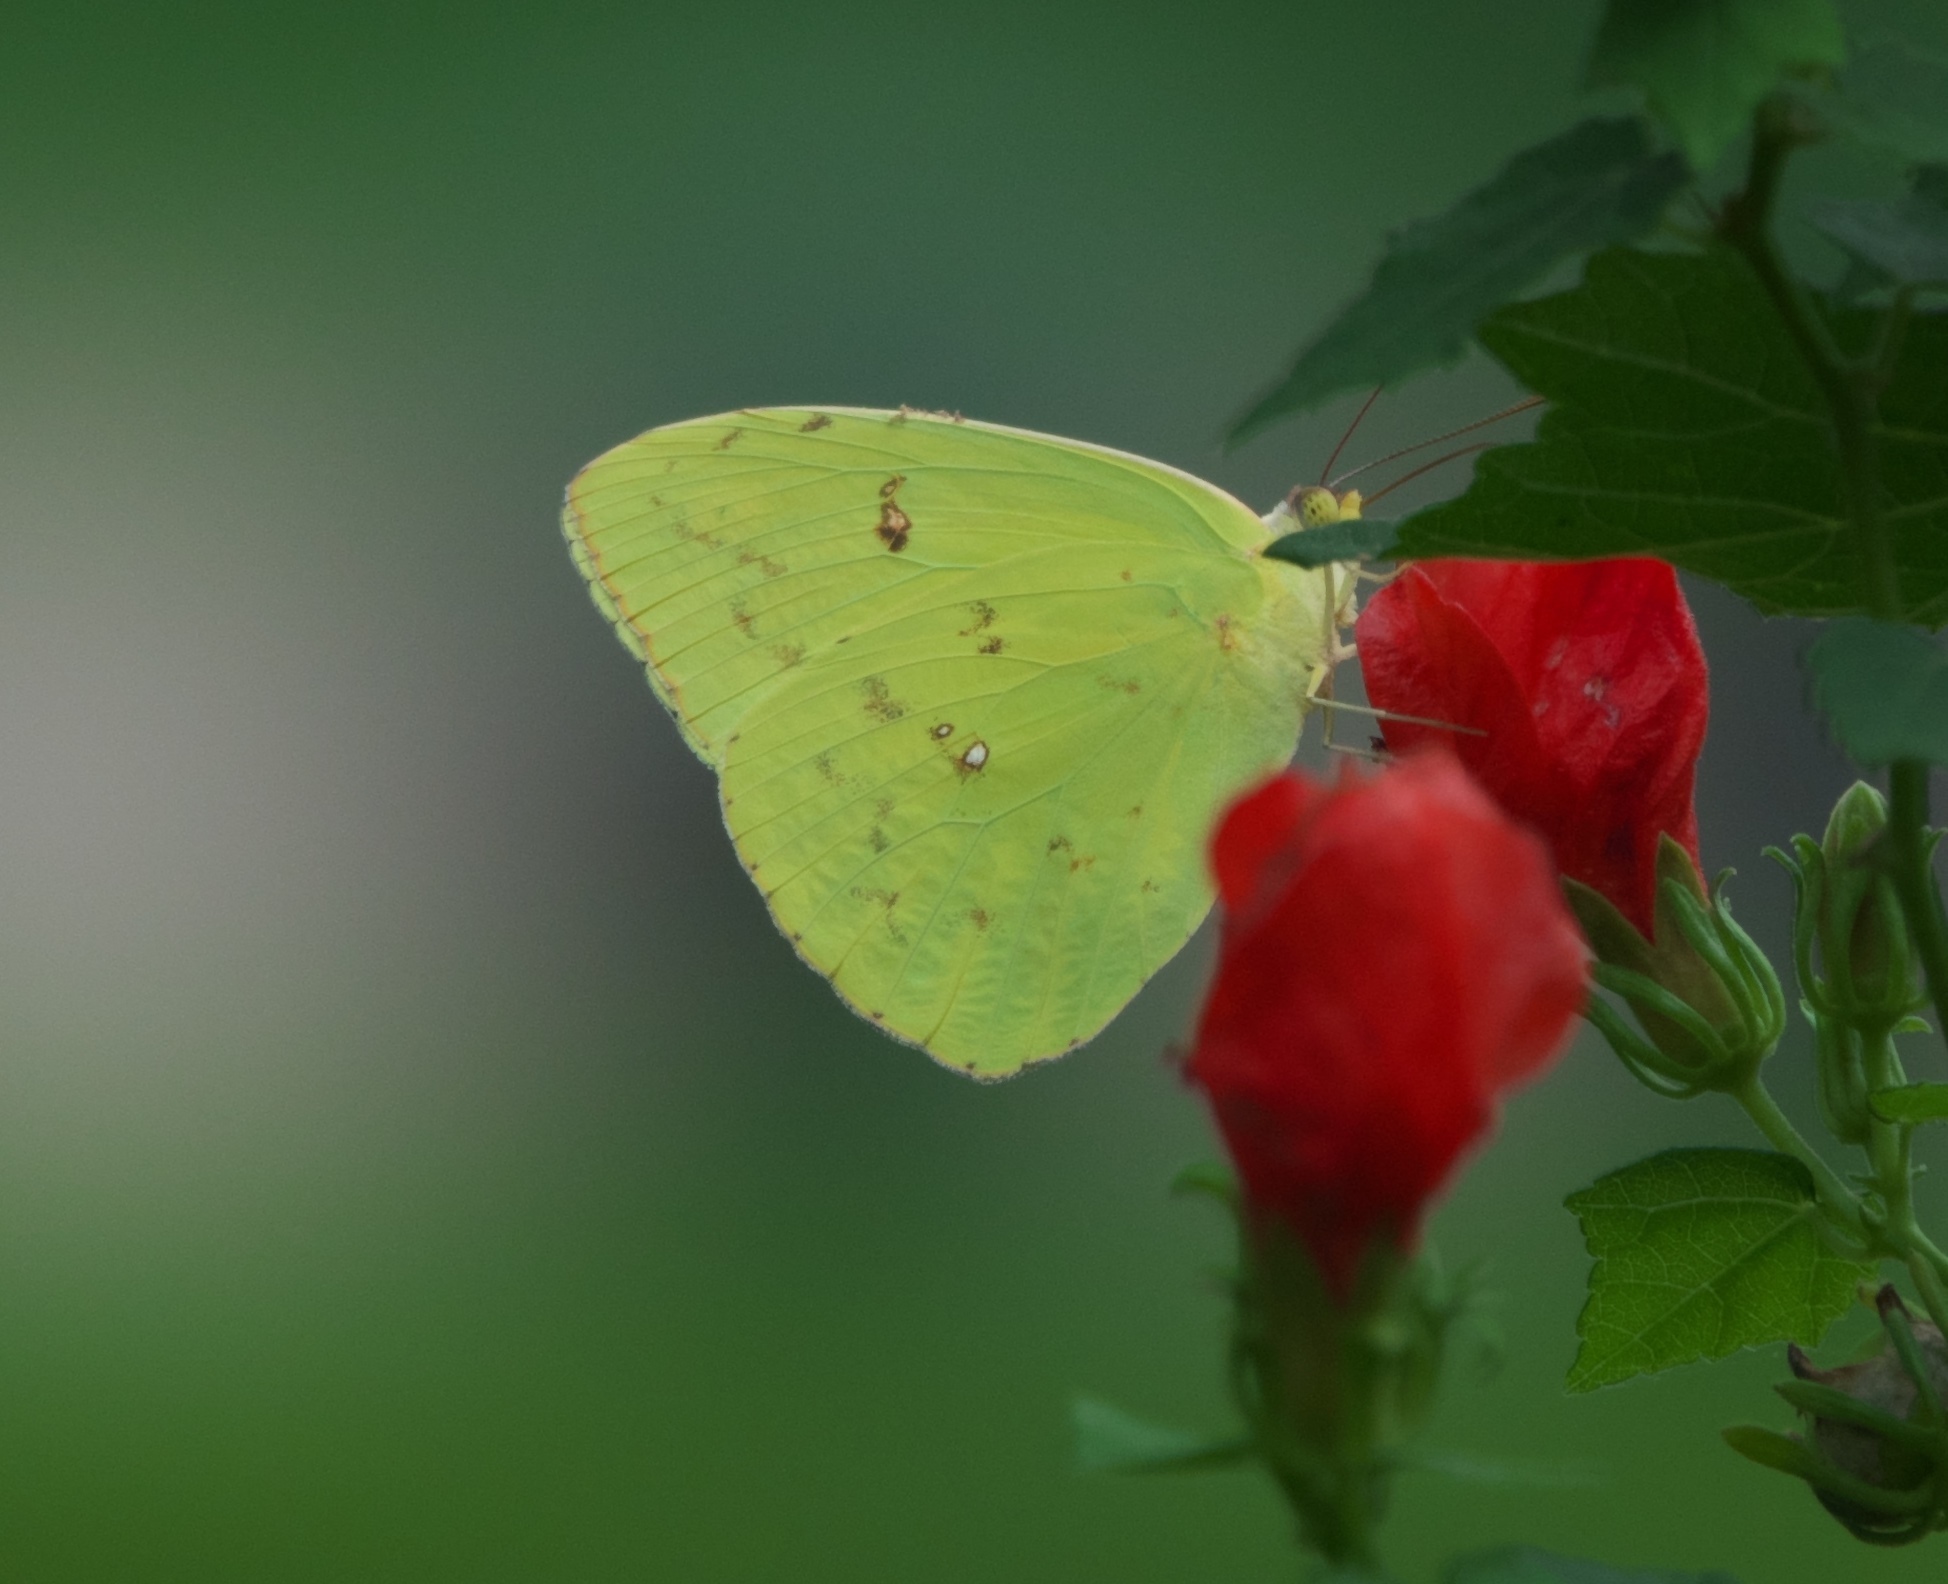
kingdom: Animalia
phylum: Arthropoda
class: Insecta
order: Lepidoptera
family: Pieridae
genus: Phoebis
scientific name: Phoebis sennae
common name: Cloudless sulphur
